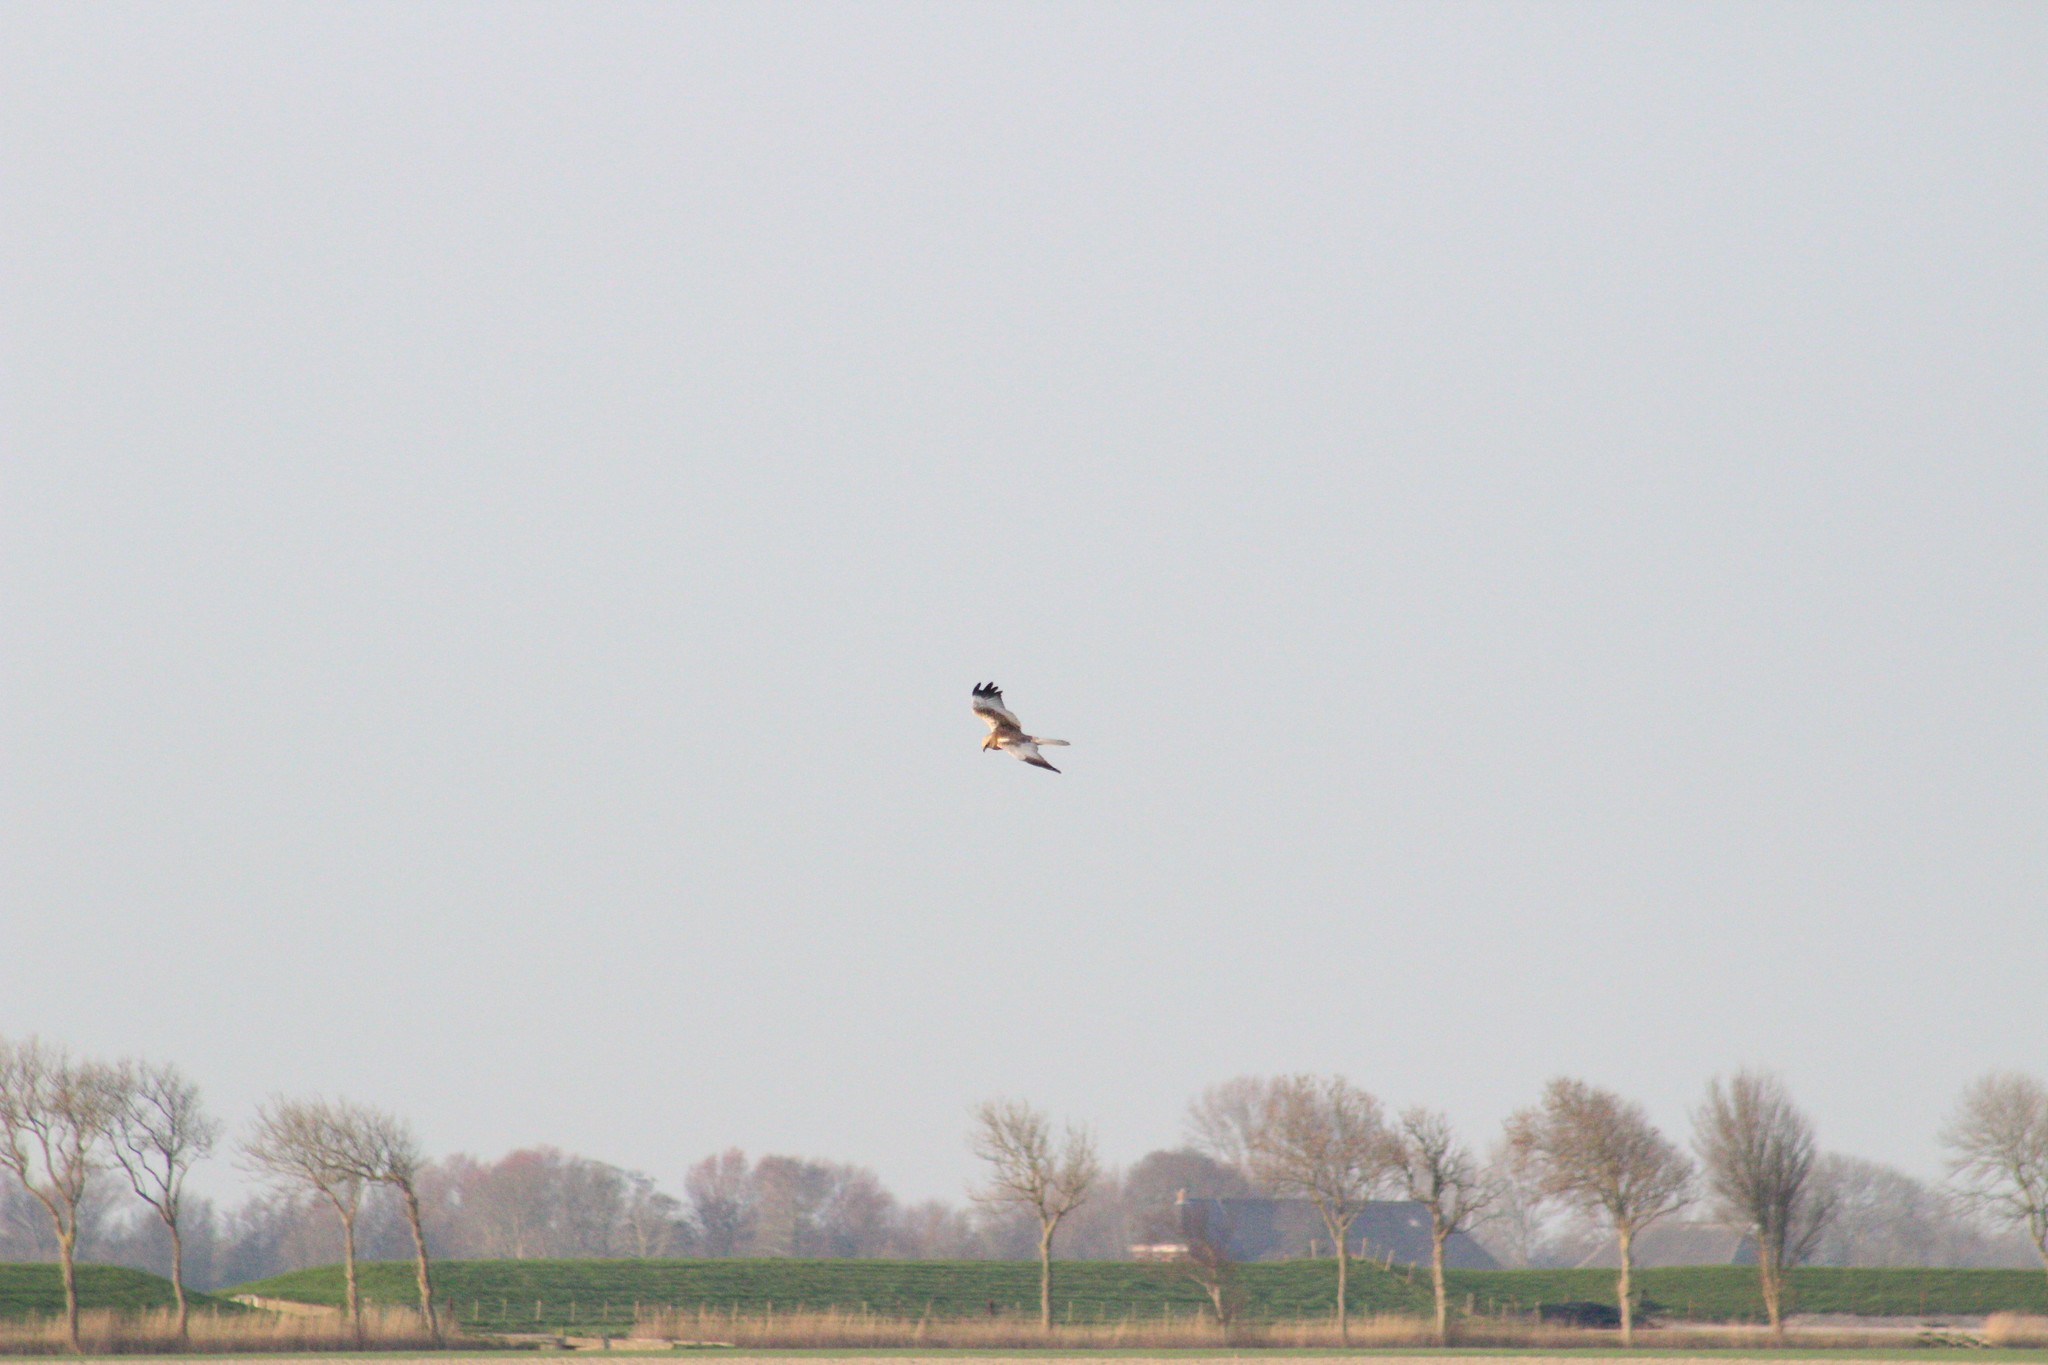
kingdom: Animalia
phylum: Chordata
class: Aves
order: Accipitriformes
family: Accipitridae
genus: Circus
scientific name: Circus aeruginosus
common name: Western marsh harrier
